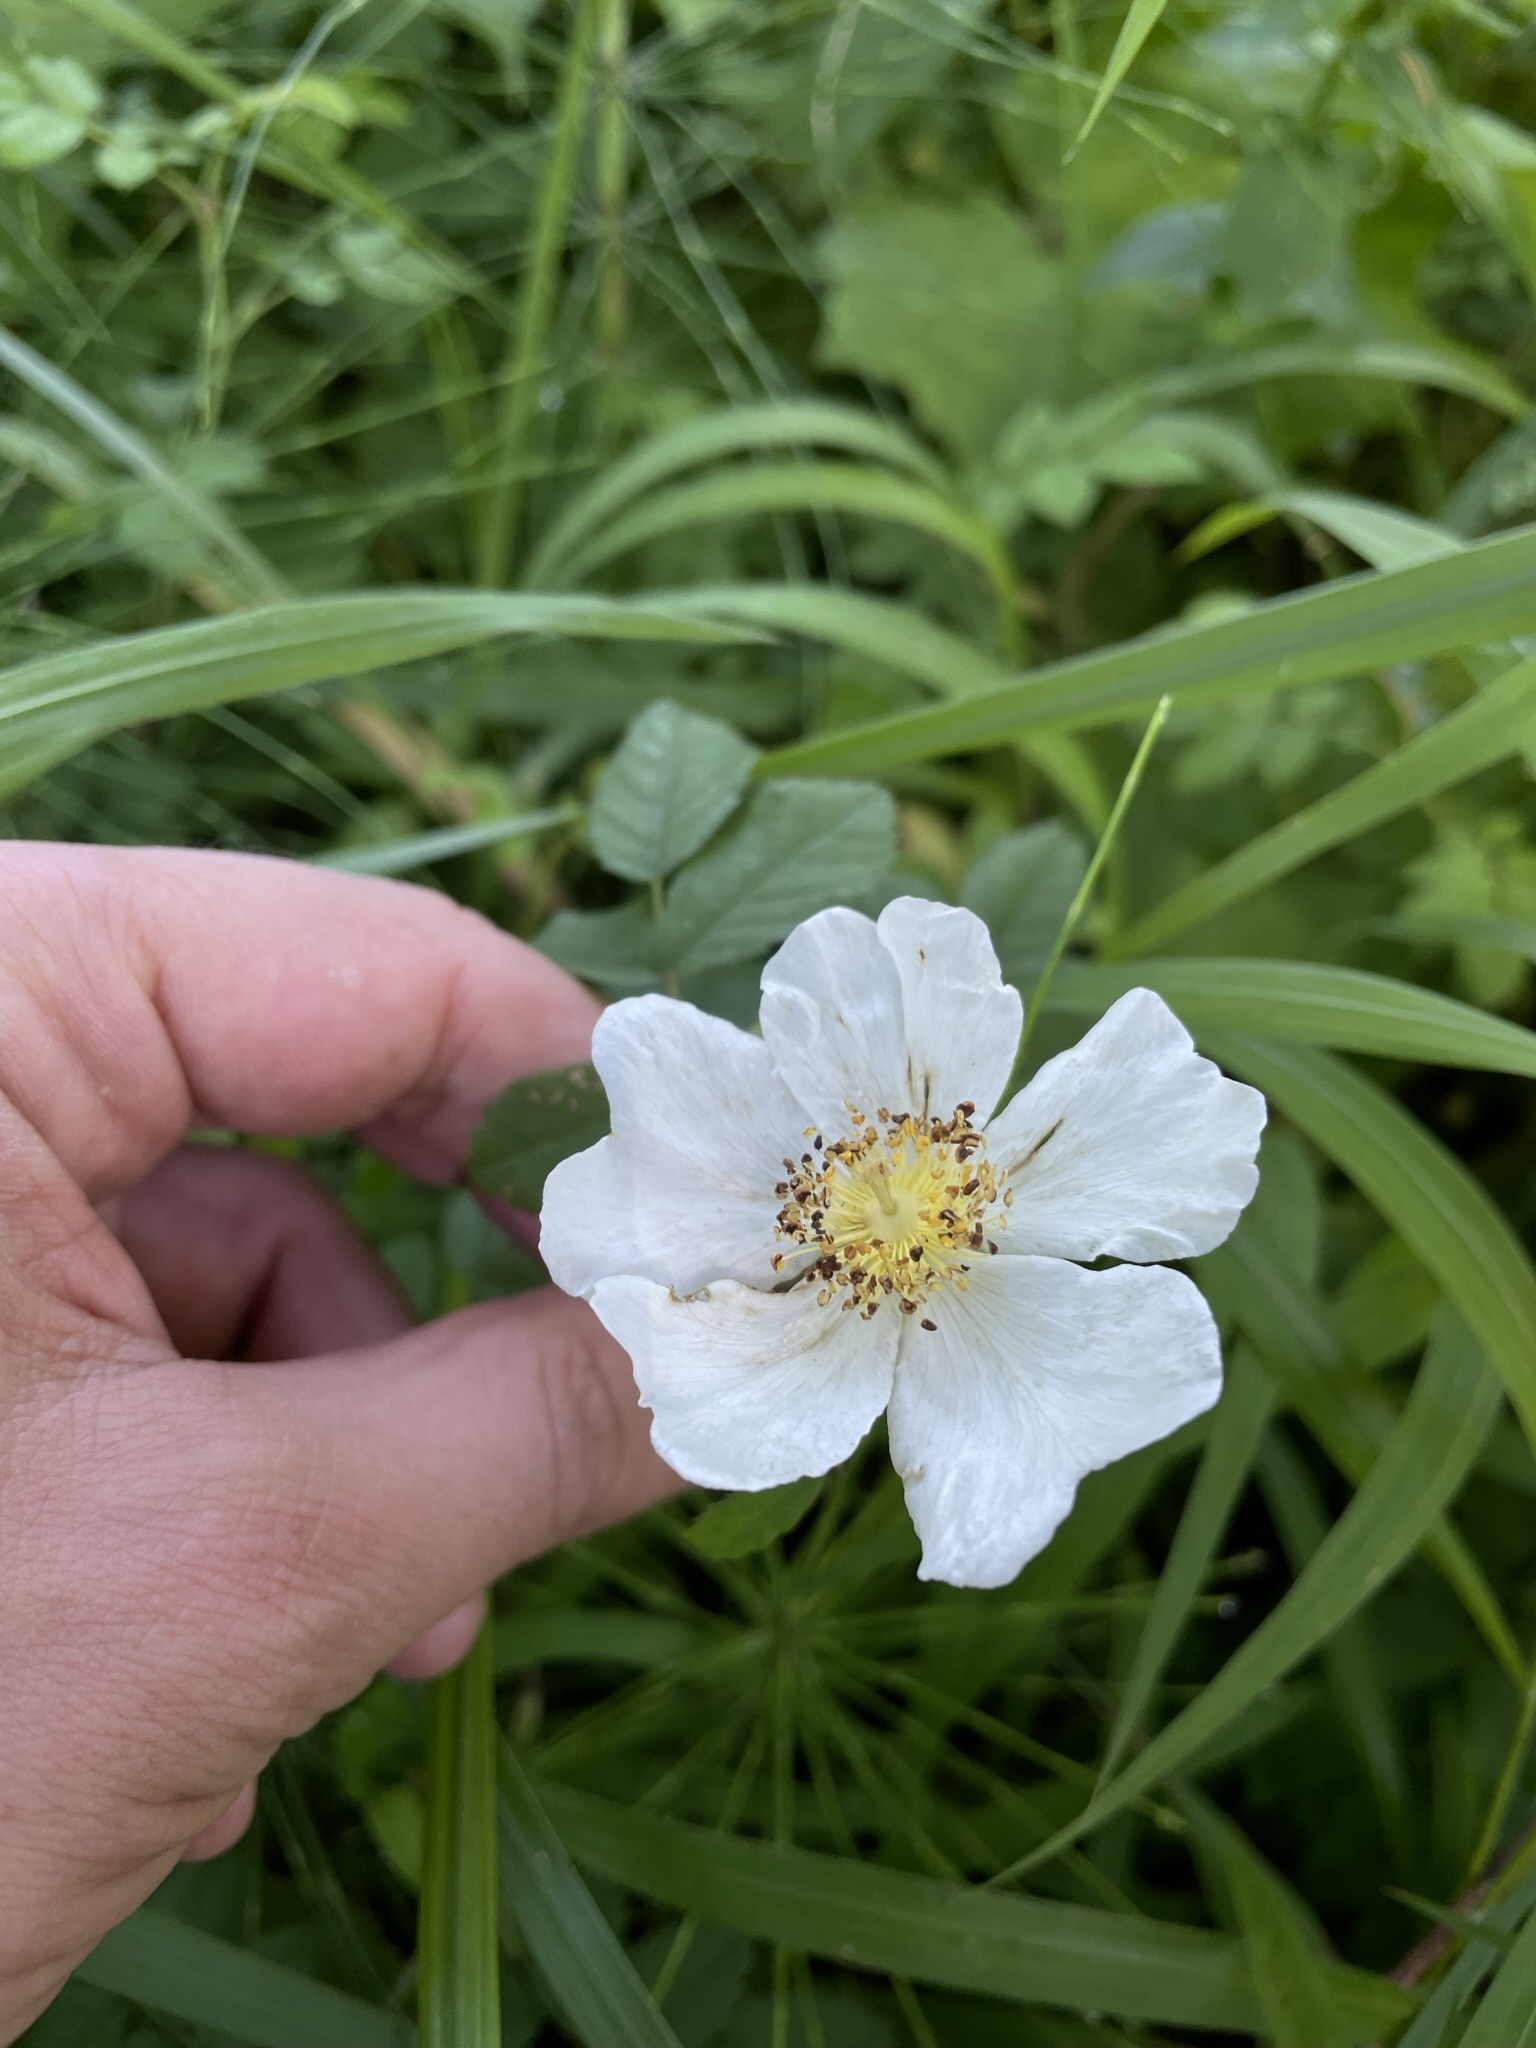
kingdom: Plantae
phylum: Tracheophyta
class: Magnoliopsida
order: Rosales
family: Rosaceae
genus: Rosa
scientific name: Rosa arvensis
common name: Field rose
